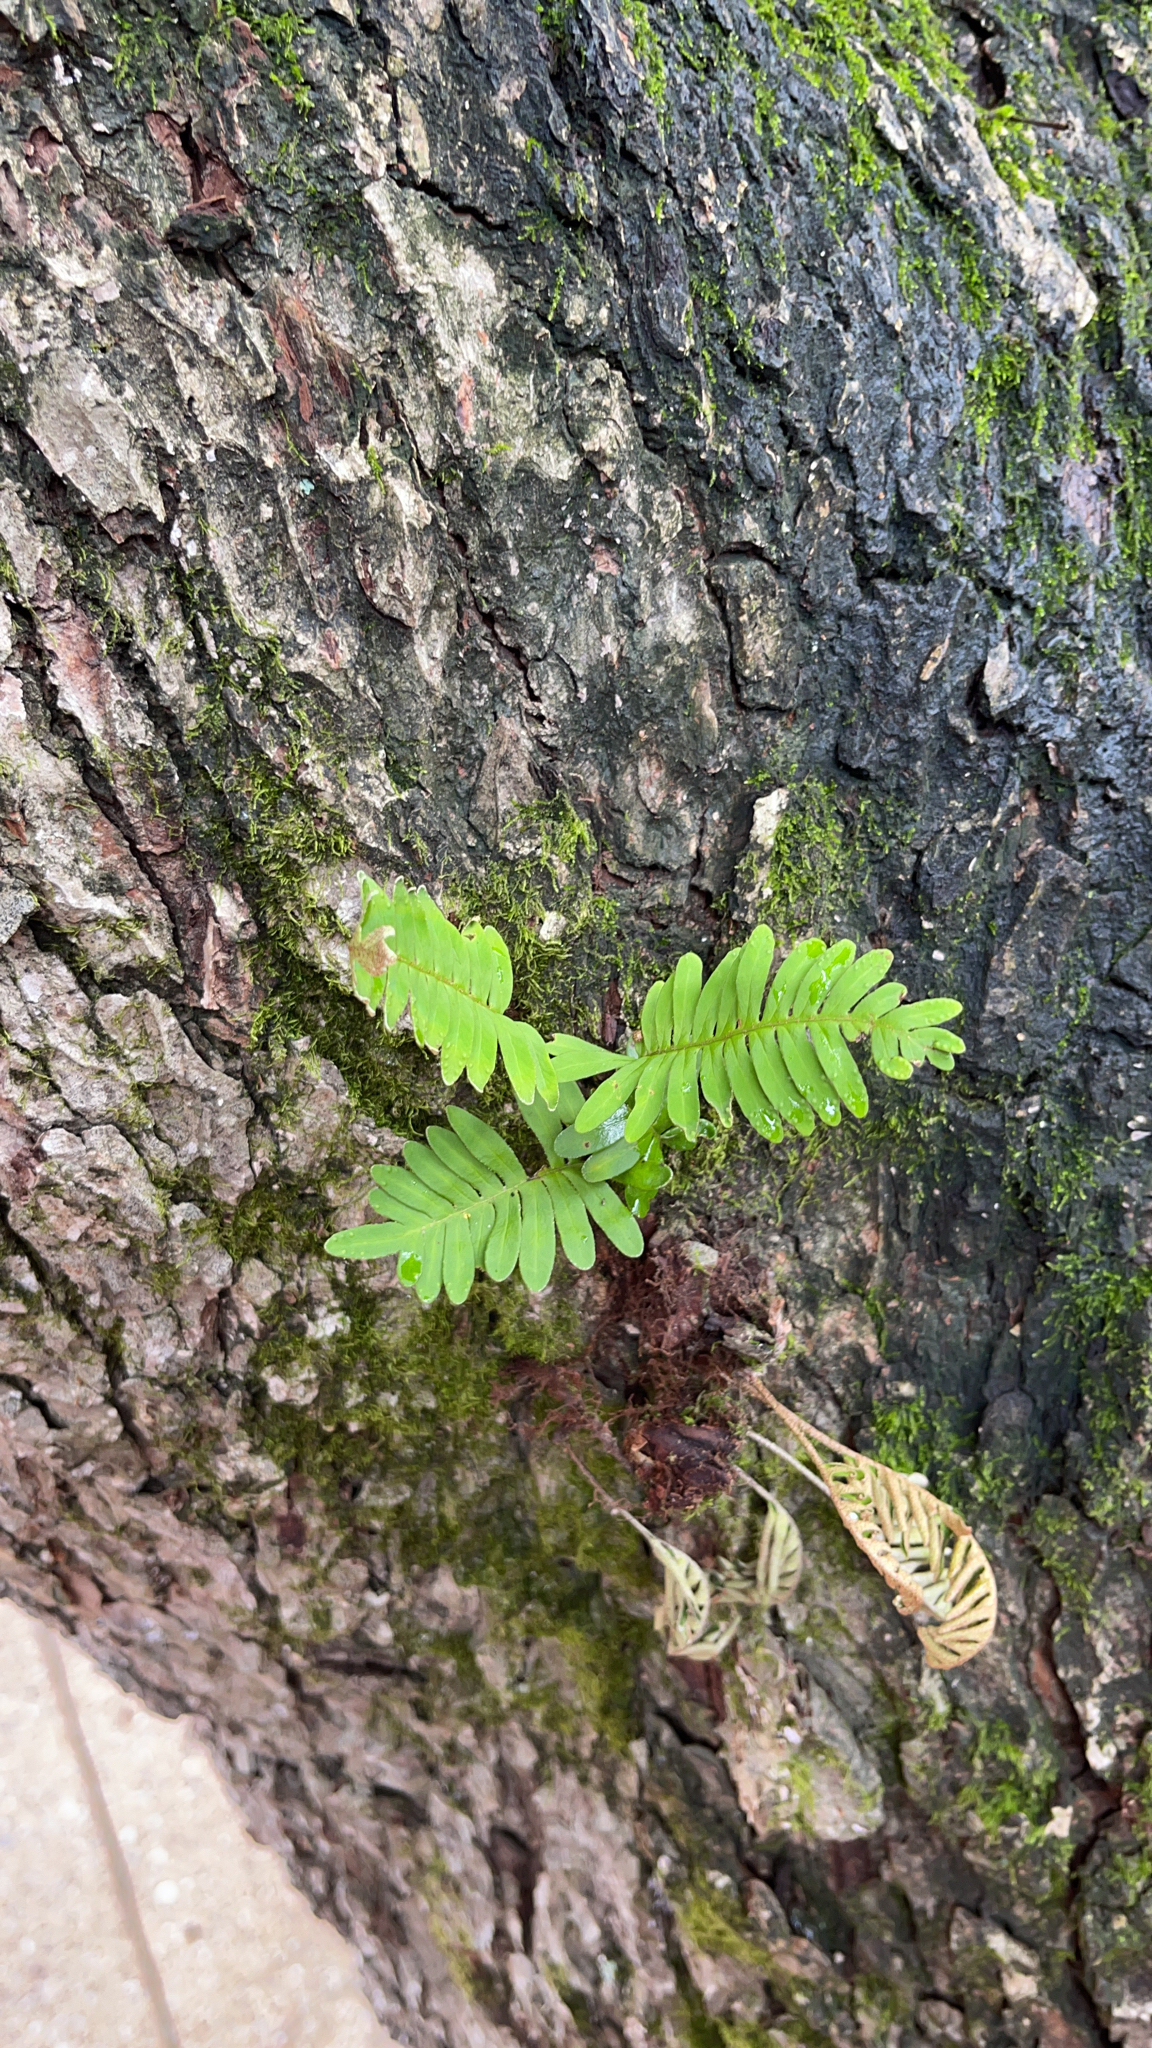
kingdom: Plantae
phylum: Tracheophyta
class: Polypodiopsida
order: Polypodiales
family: Polypodiaceae
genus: Pleopeltis
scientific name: Pleopeltis michauxiana
